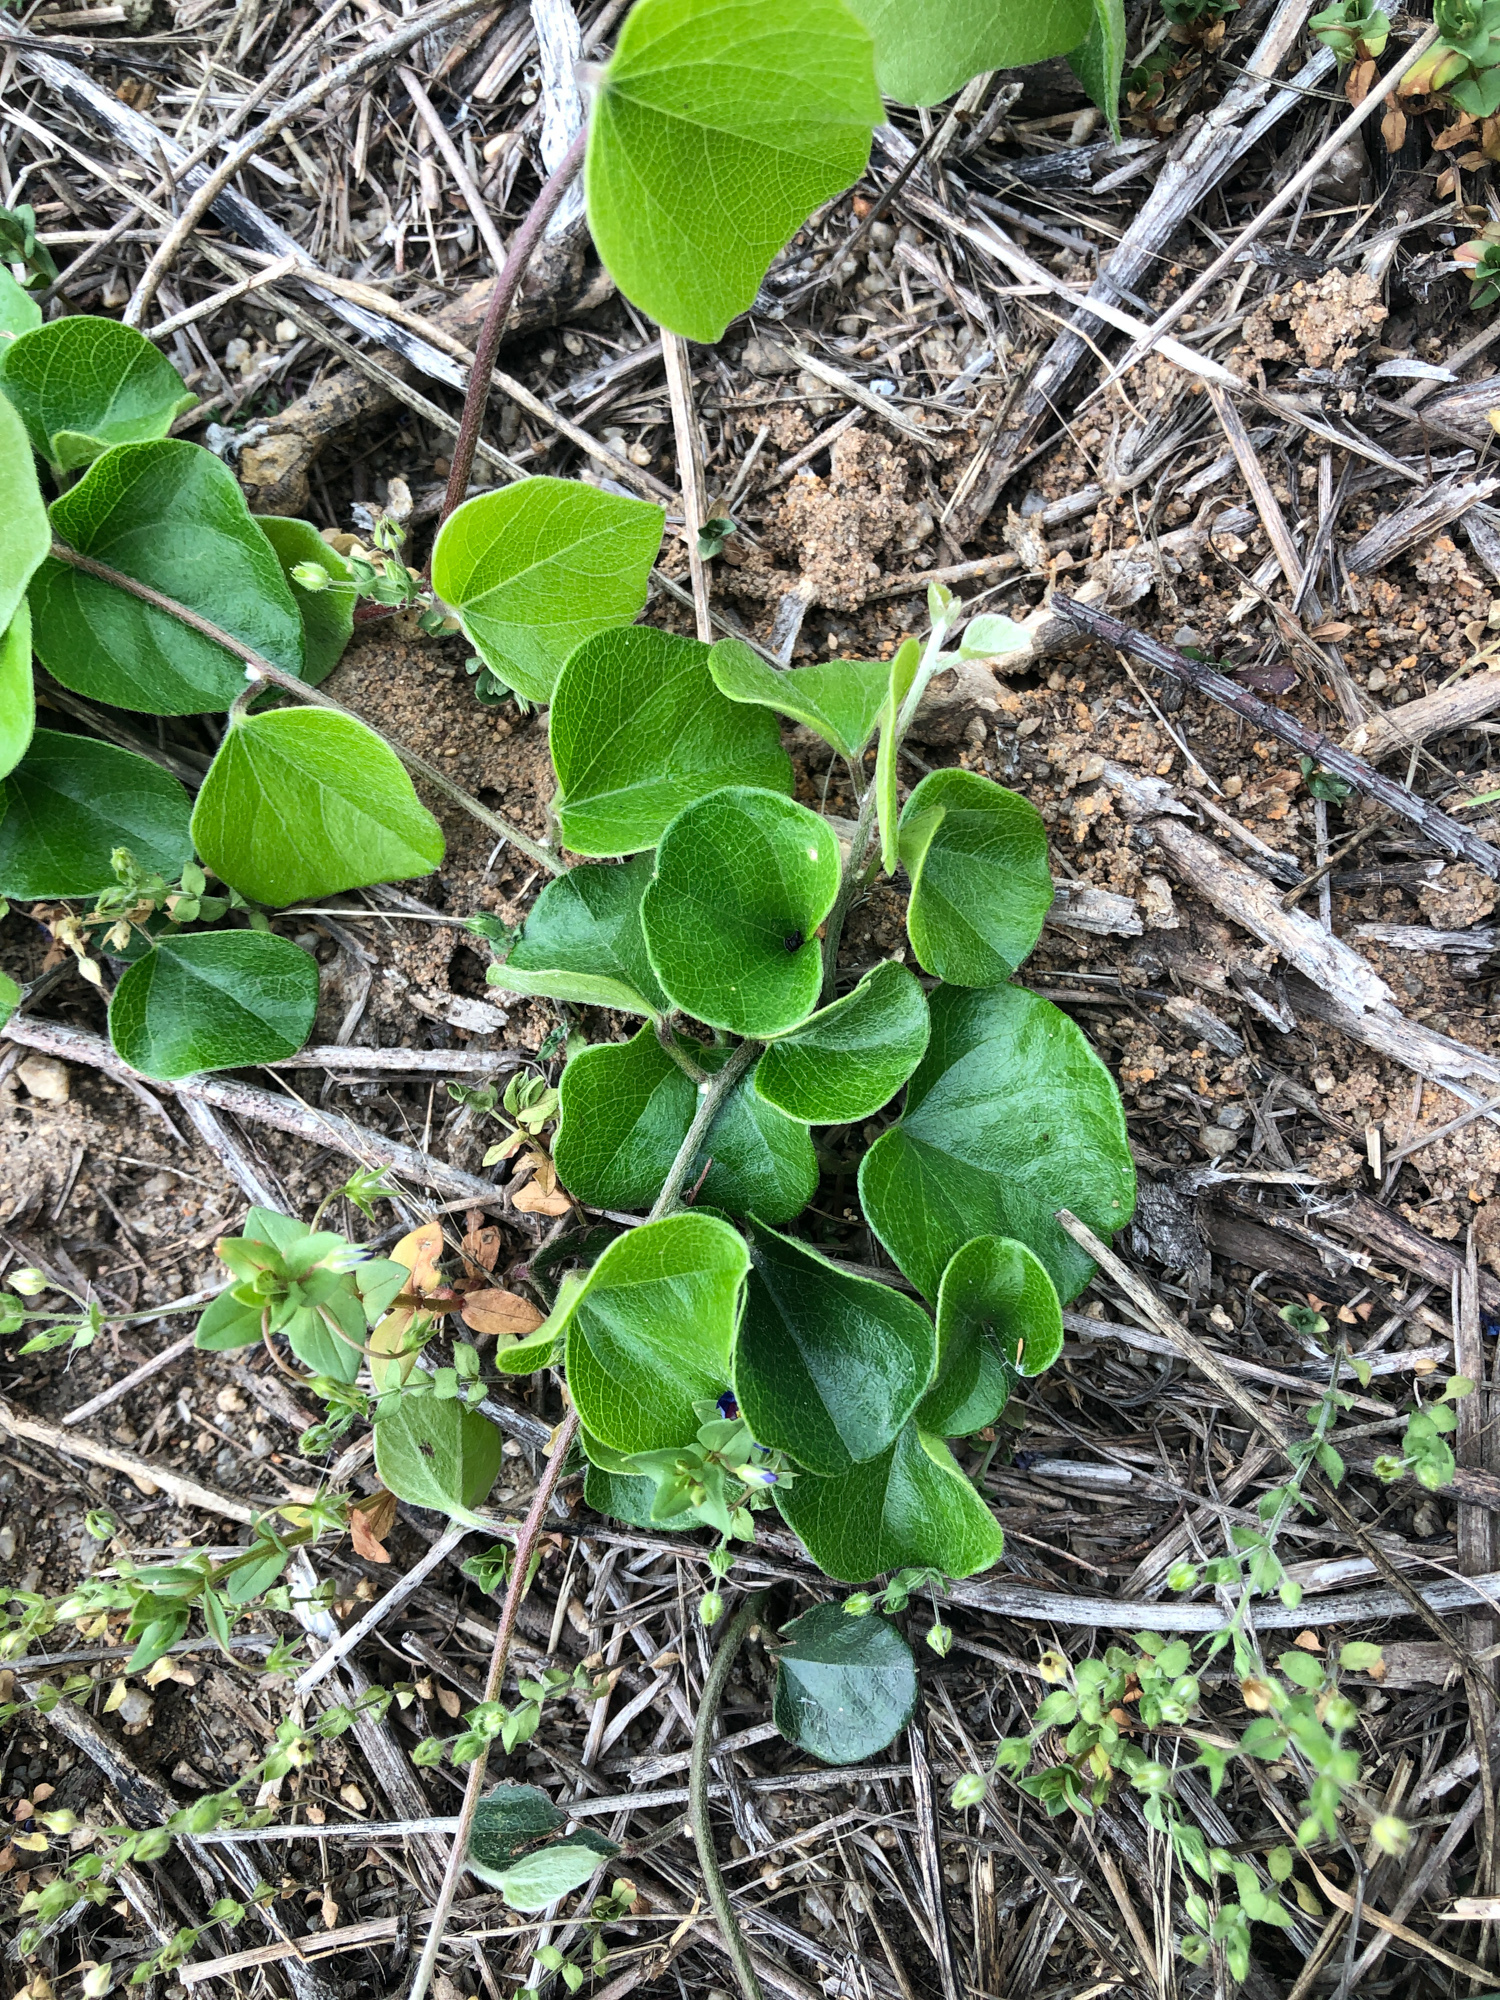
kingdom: Plantae
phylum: Tracheophyta
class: Magnoliopsida
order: Ranunculales
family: Menispermaceae
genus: Cyclea
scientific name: Cyclea gracillima
